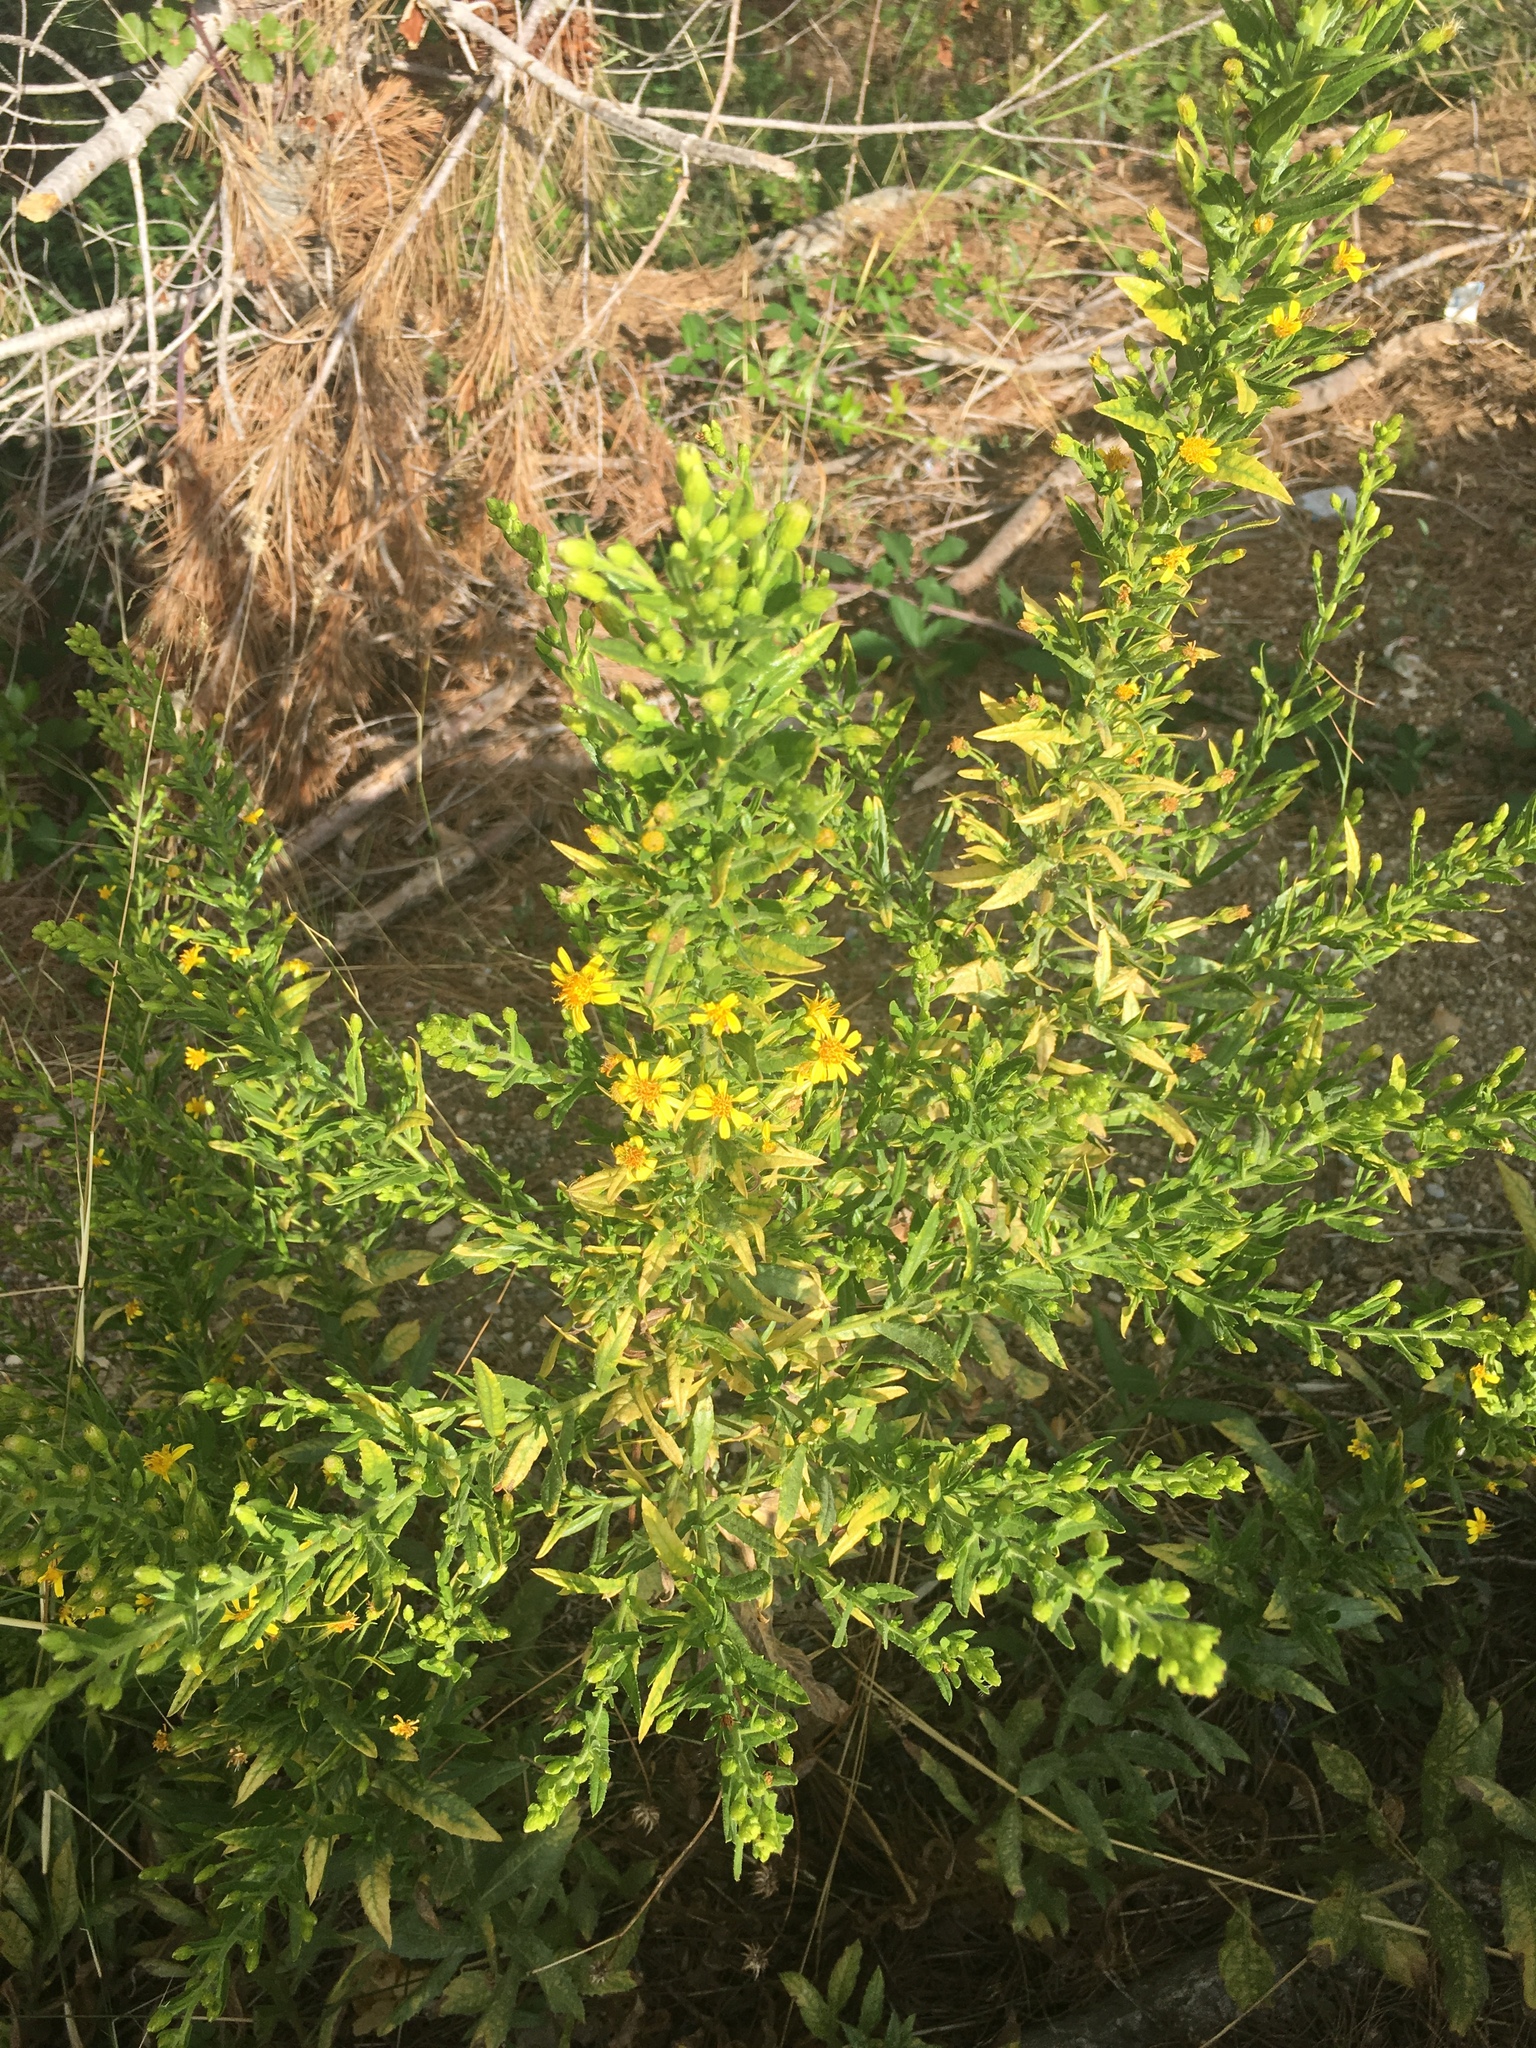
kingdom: Plantae
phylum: Tracheophyta
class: Magnoliopsida
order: Asterales
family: Asteraceae
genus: Dittrichia
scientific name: Dittrichia viscosa
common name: Woody fleabane
